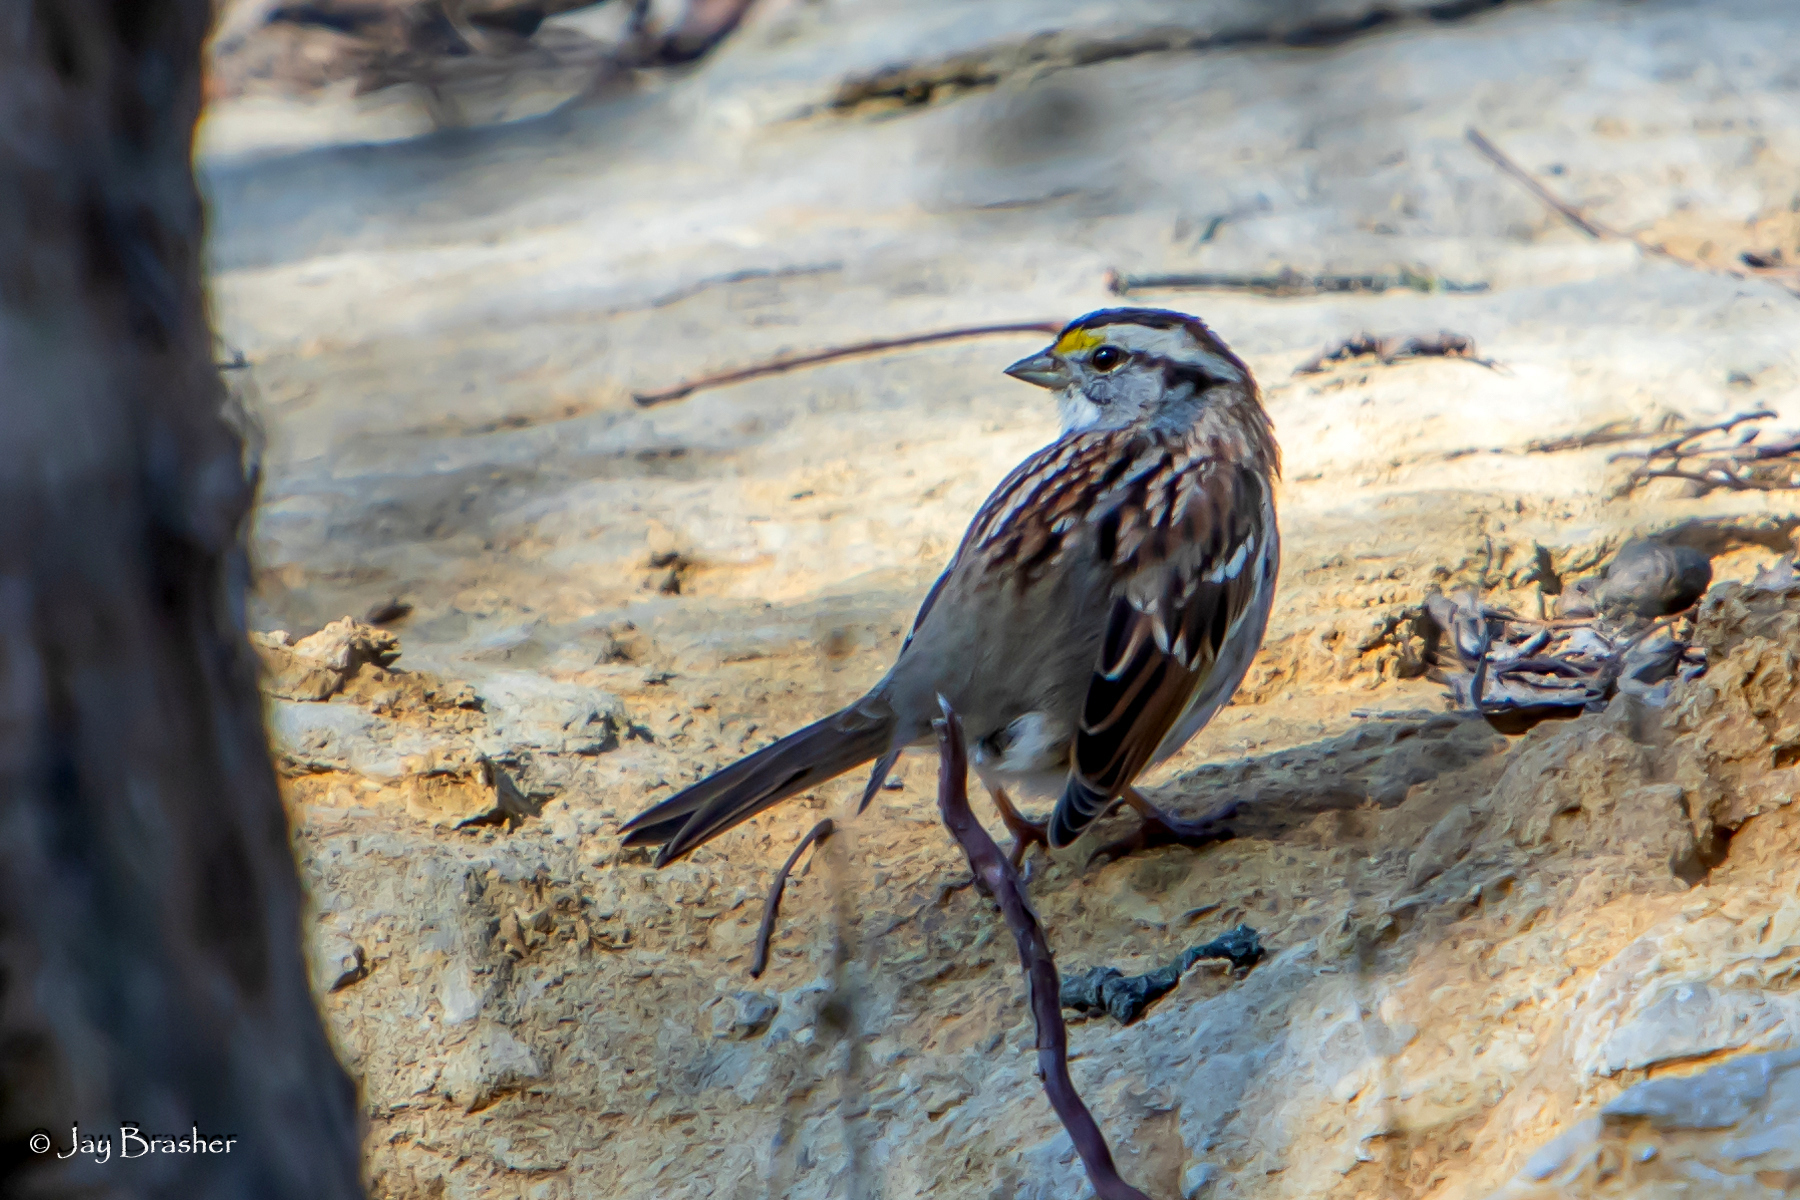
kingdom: Animalia
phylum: Chordata
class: Aves
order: Passeriformes
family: Passerellidae
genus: Zonotrichia
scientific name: Zonotrichia albicollis
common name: White-throated sparrow
